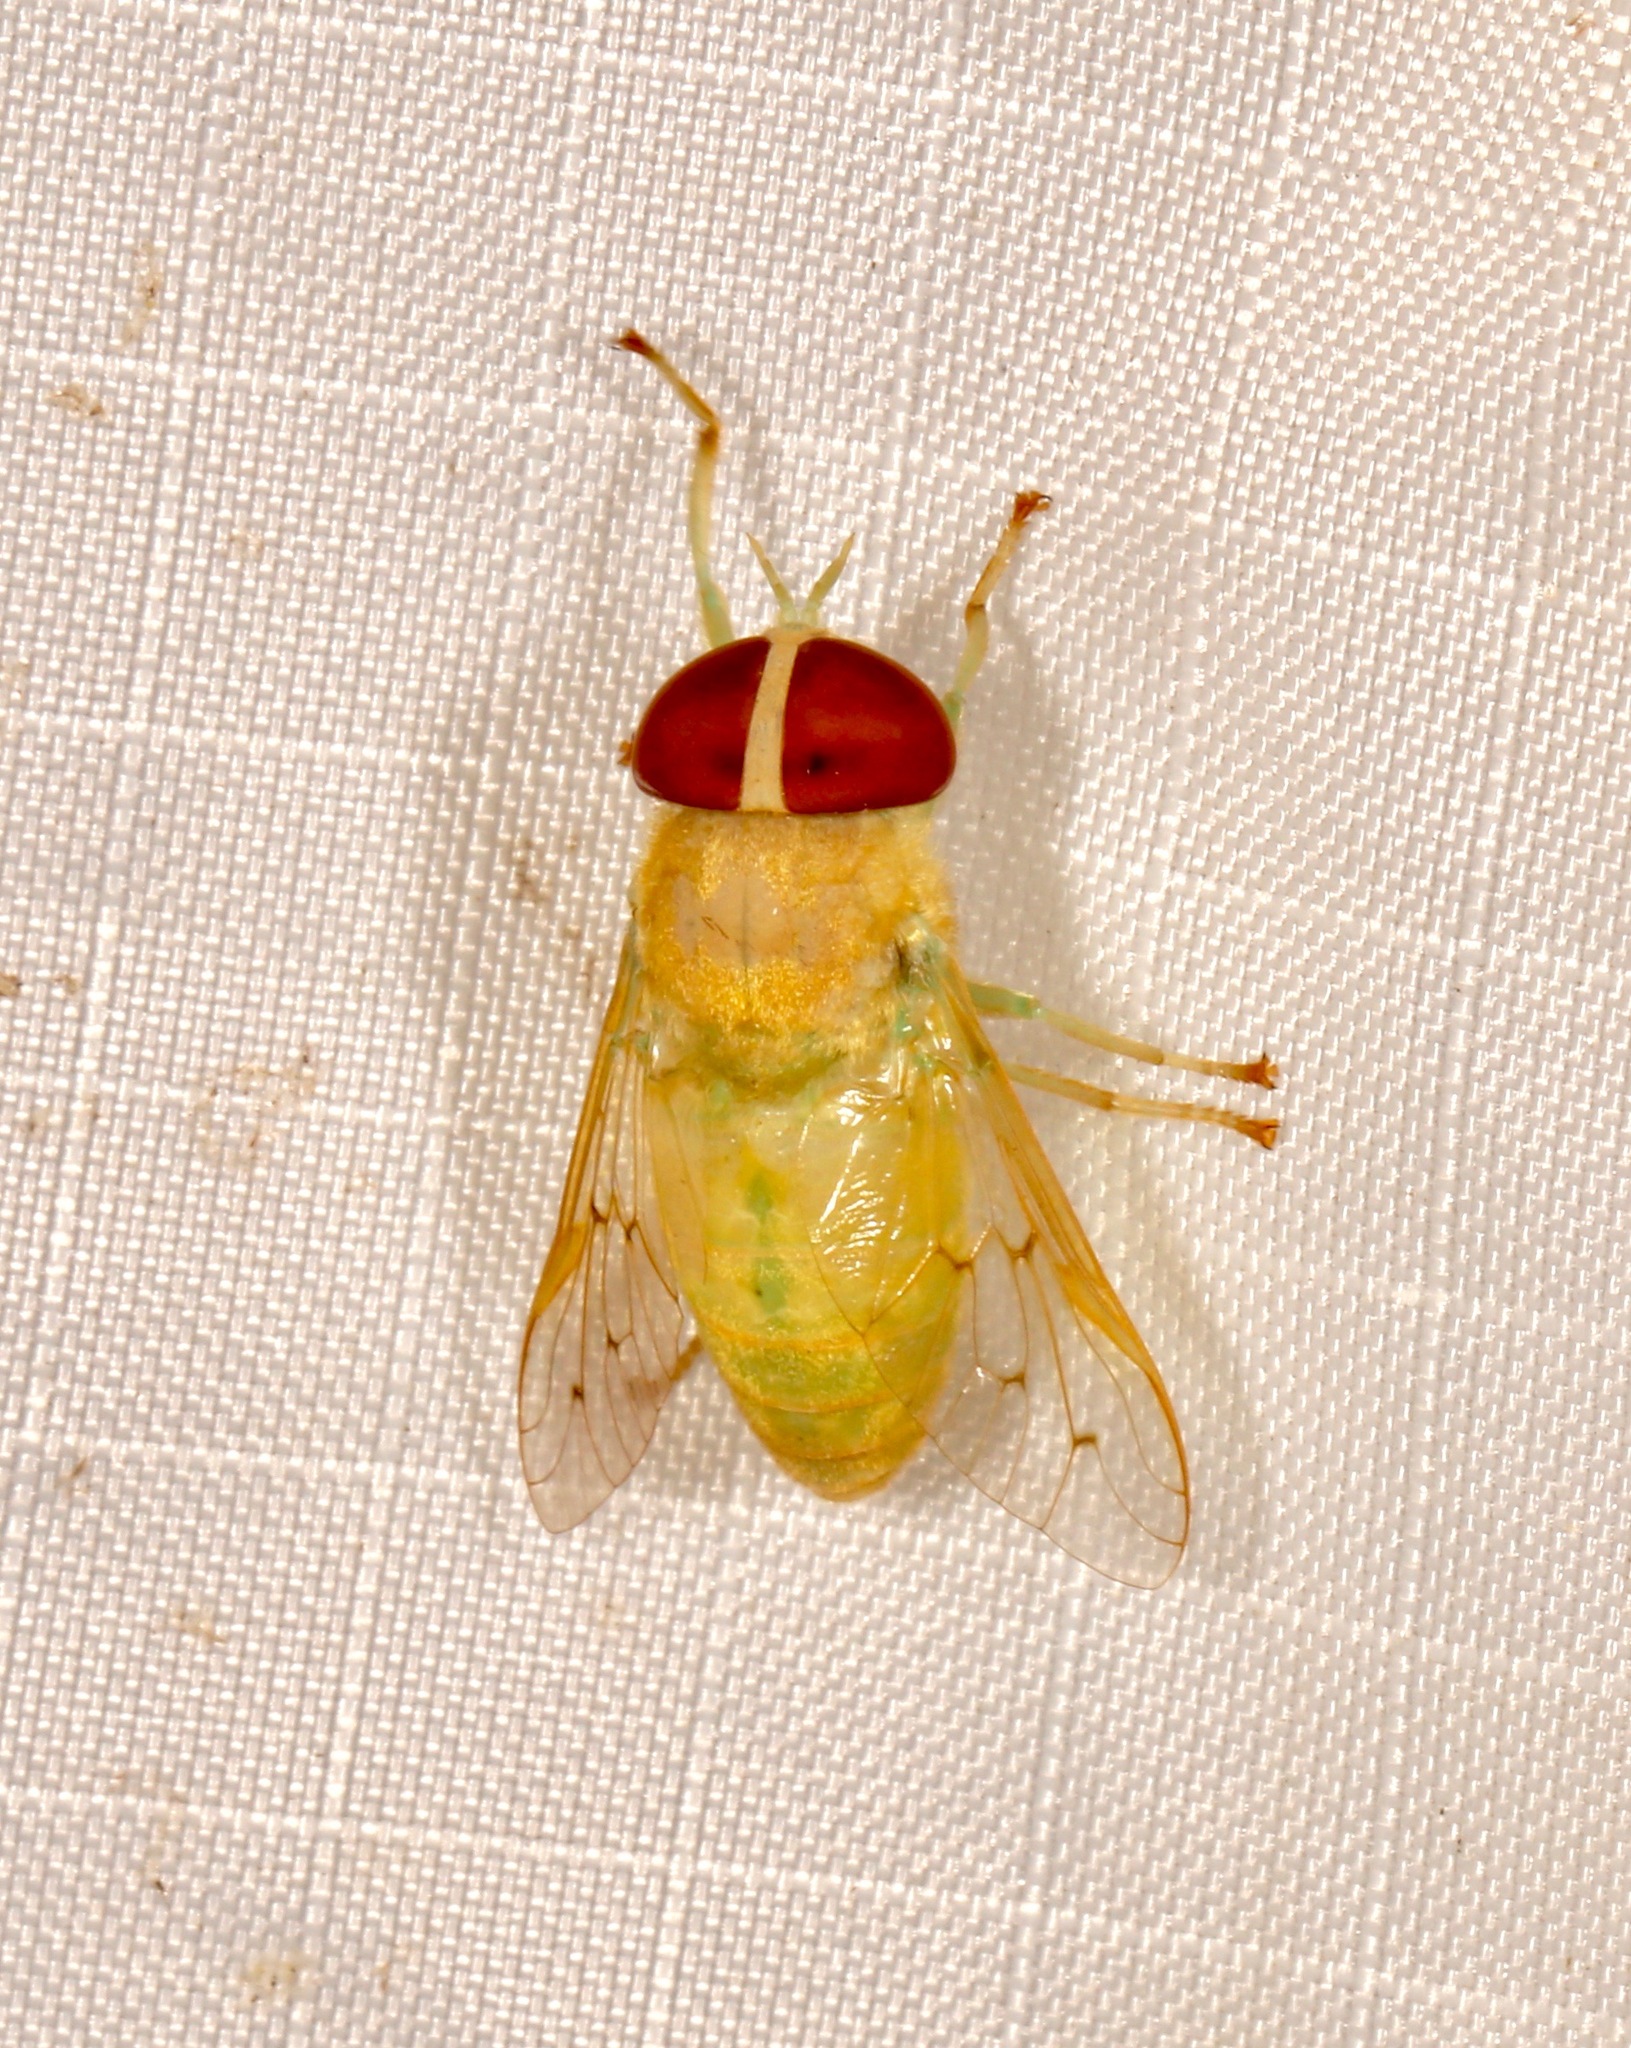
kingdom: Animalia
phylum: Arthropoda
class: Insecta
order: Diptera
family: Tabanidae
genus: Chlorotabanus
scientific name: Chlorotabanus crepuscularis
